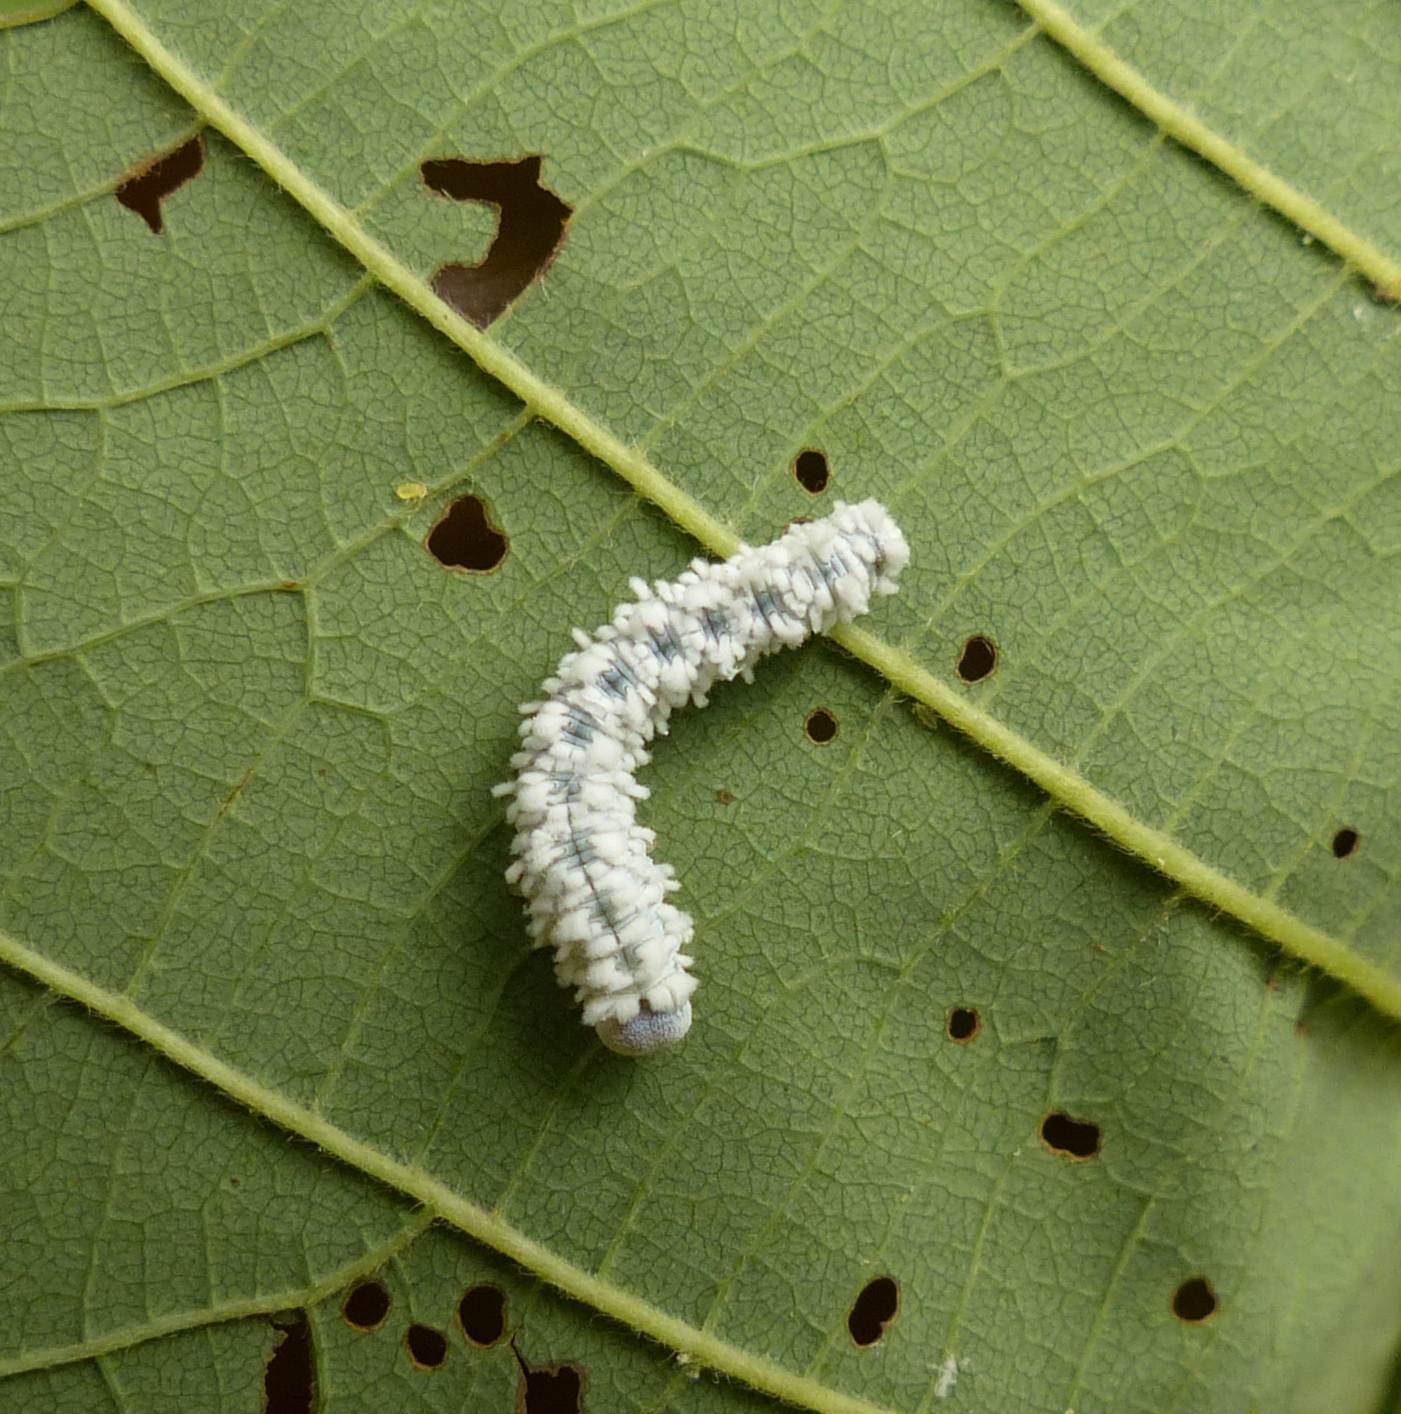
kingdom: Animalia
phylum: Arthropoda
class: Insecta
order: Hymenoptera
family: Tenthredinidae
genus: Eriocampa
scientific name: Eriocampa ovata
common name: Alder wooly sawfly
